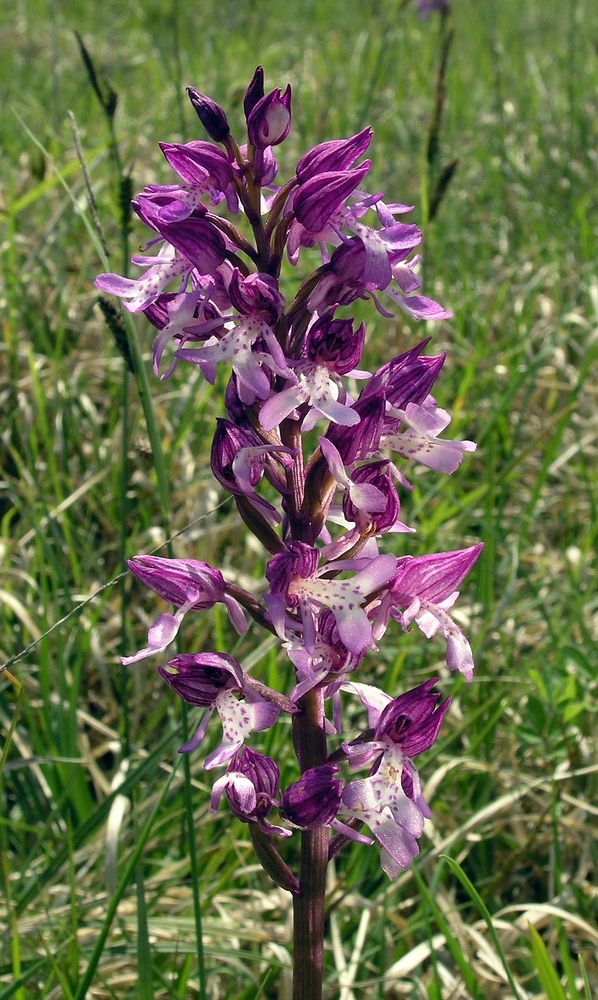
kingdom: Plantae
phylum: Tracheophyta
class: Liliopsida
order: Asparagales
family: Orchidaceae
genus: Orchis
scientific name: Orchis hybrida
